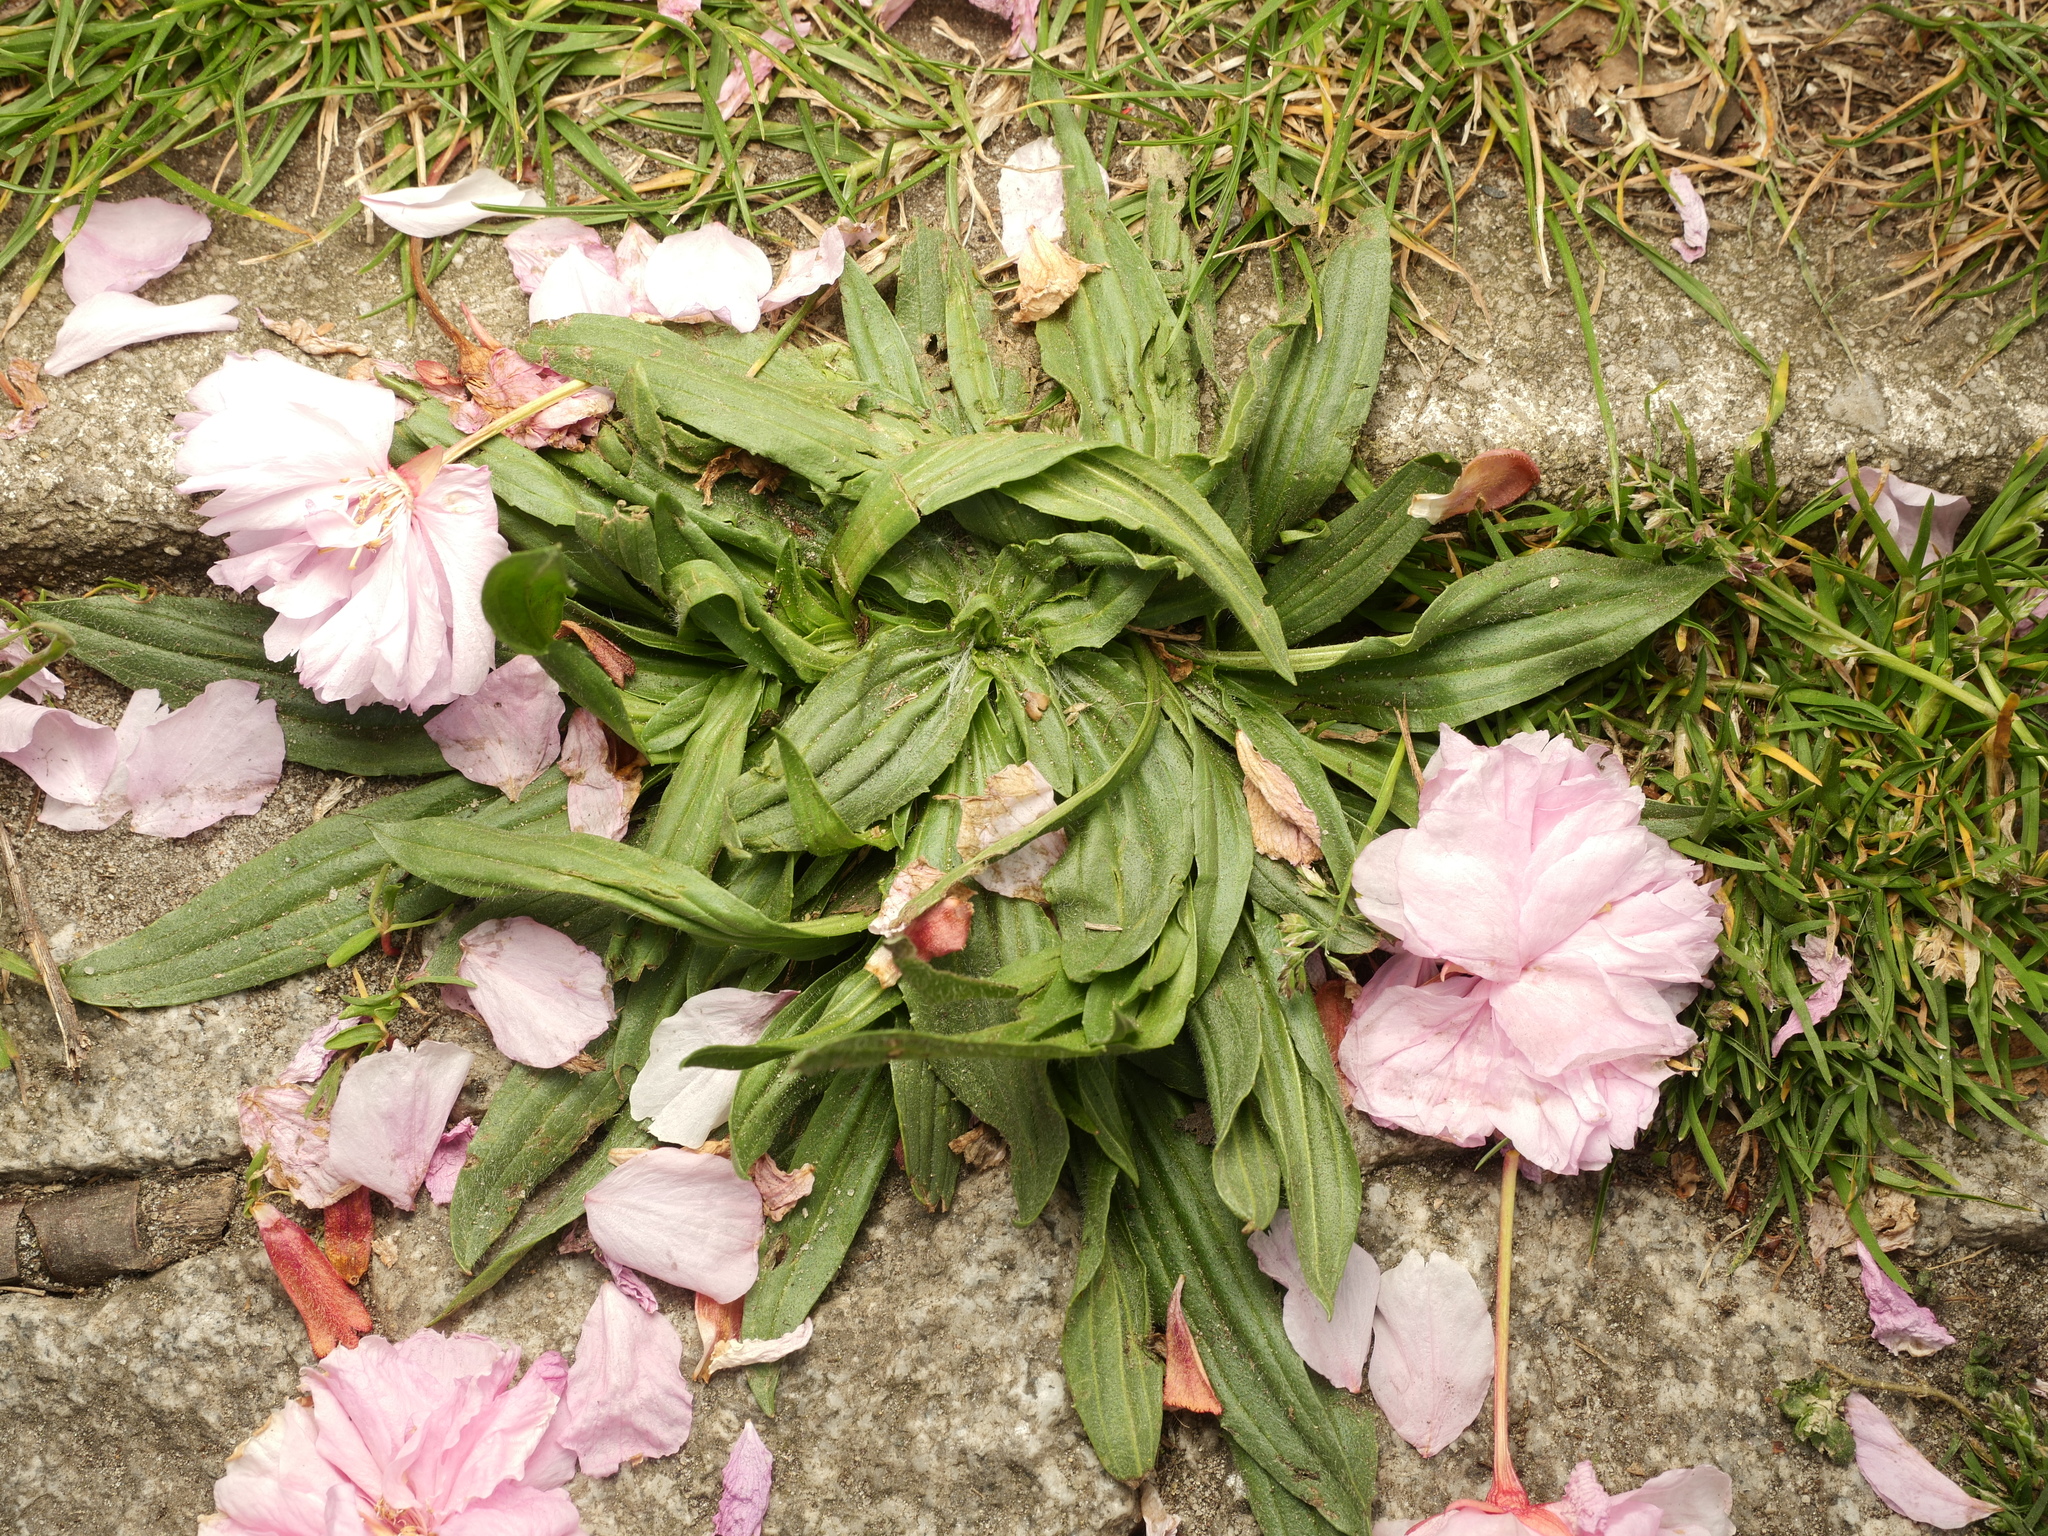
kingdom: Plantae
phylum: Tracheophyta
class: Magnoliopsida
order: Lamiales
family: Plantaginaceae
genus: Plantago
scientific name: Plantago lanceolata
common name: Ribwort plantain
